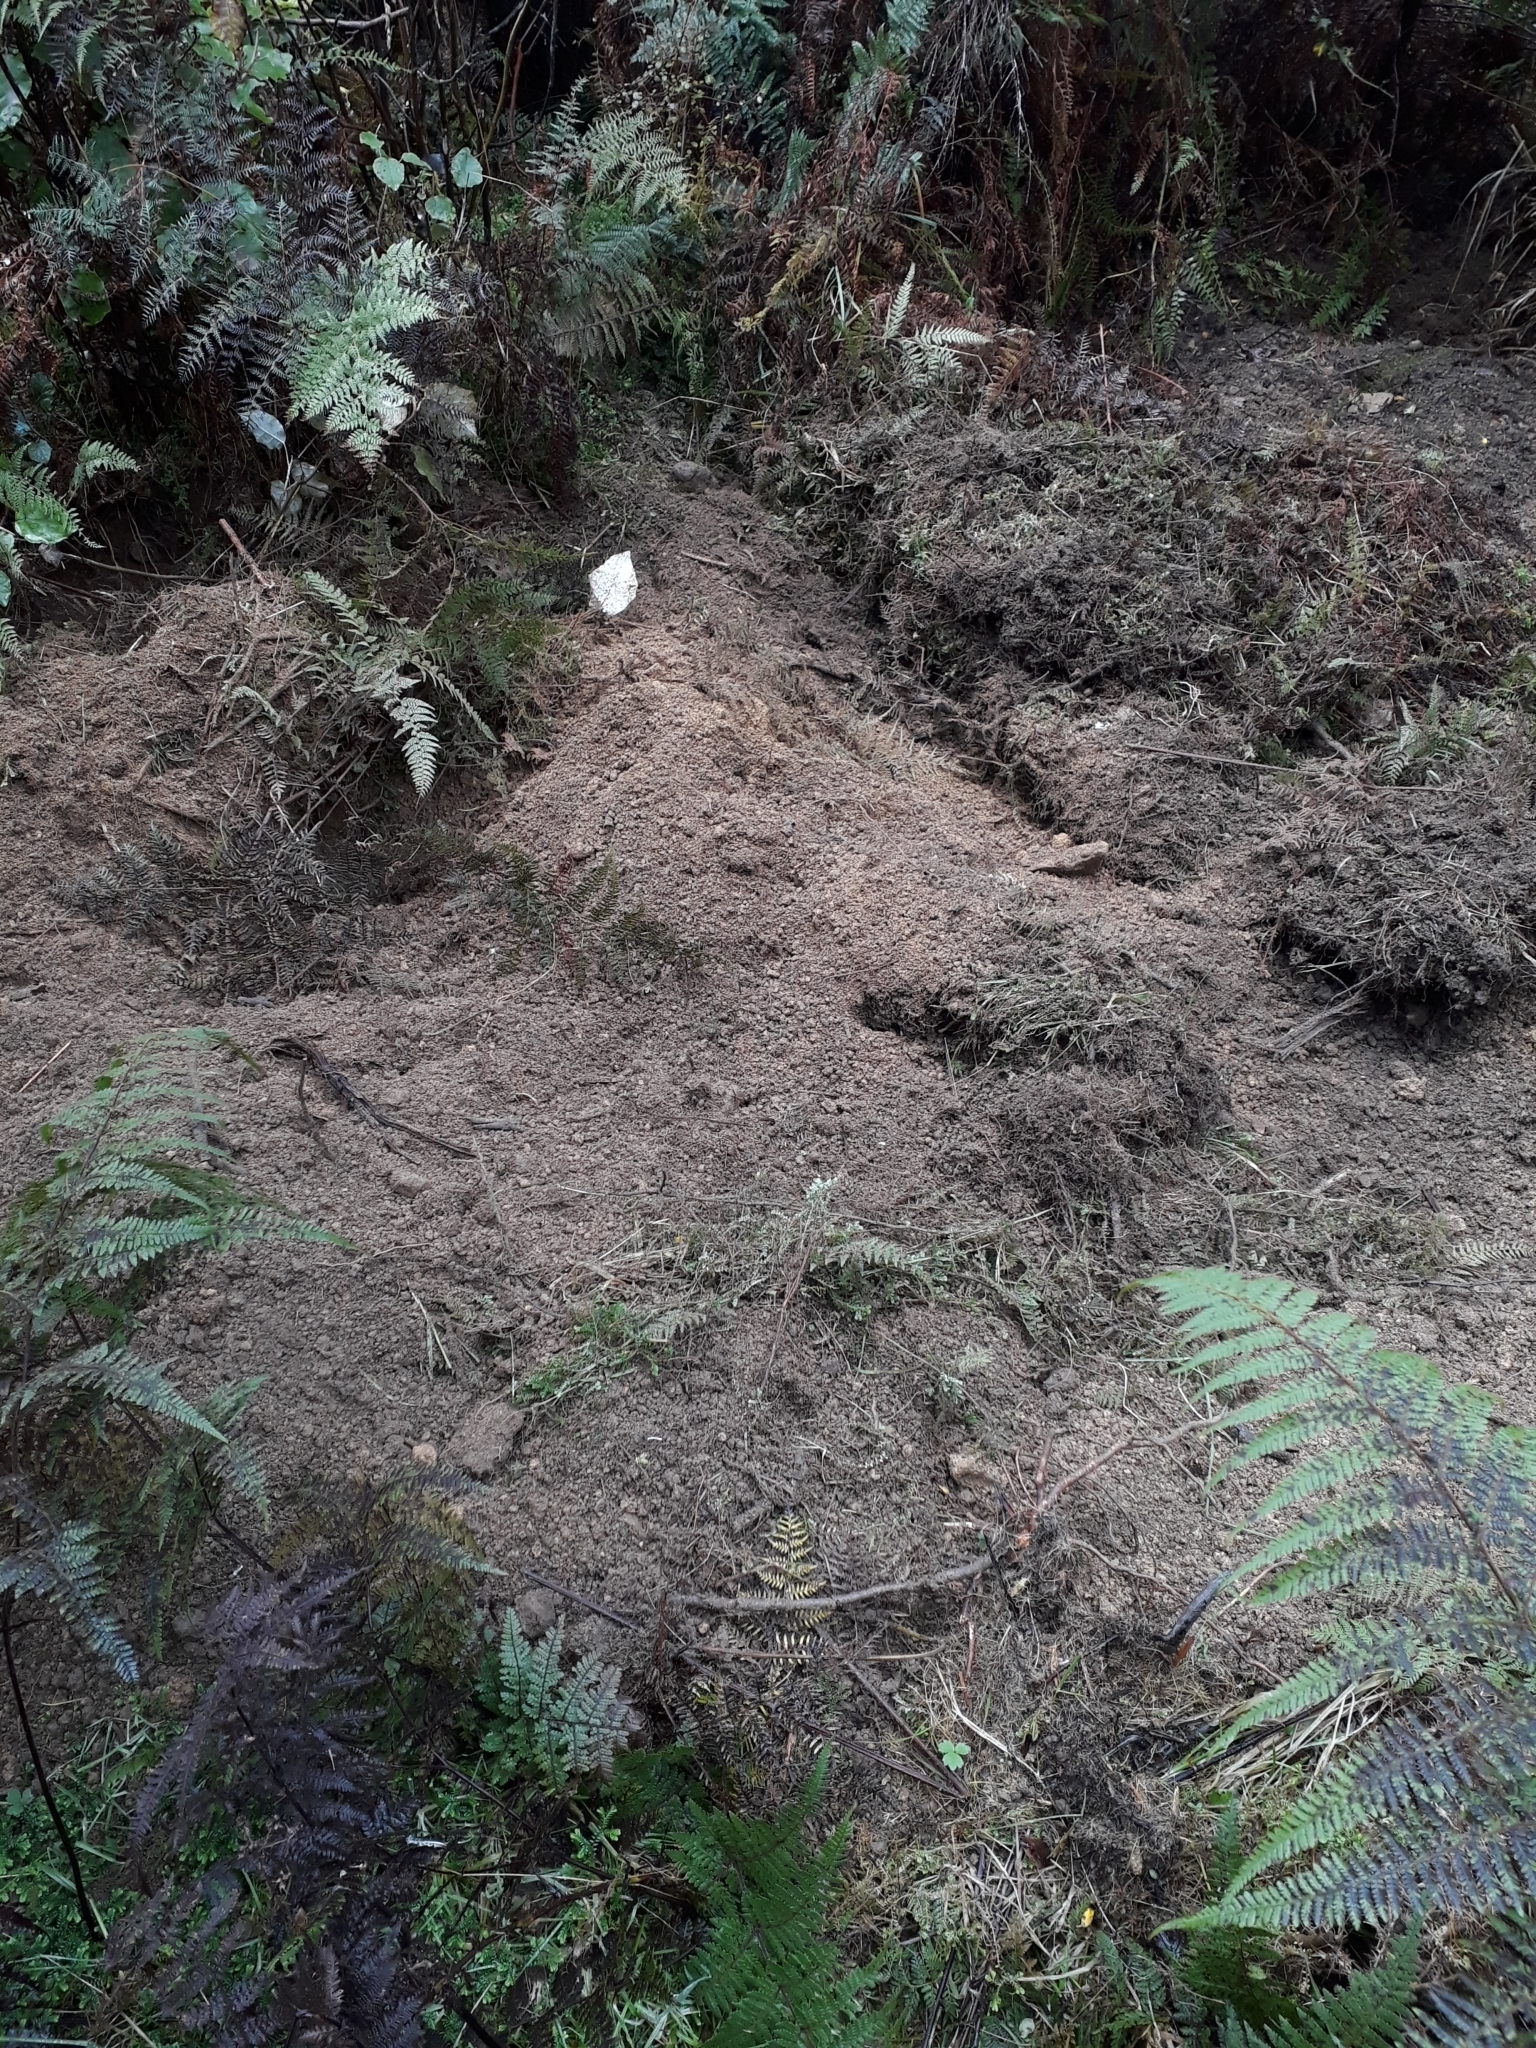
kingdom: Animalia
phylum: Chordata
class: Mammalia
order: Artiodactyla
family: Suidae
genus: Sus
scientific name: Sus scrofa
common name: Wild boar
